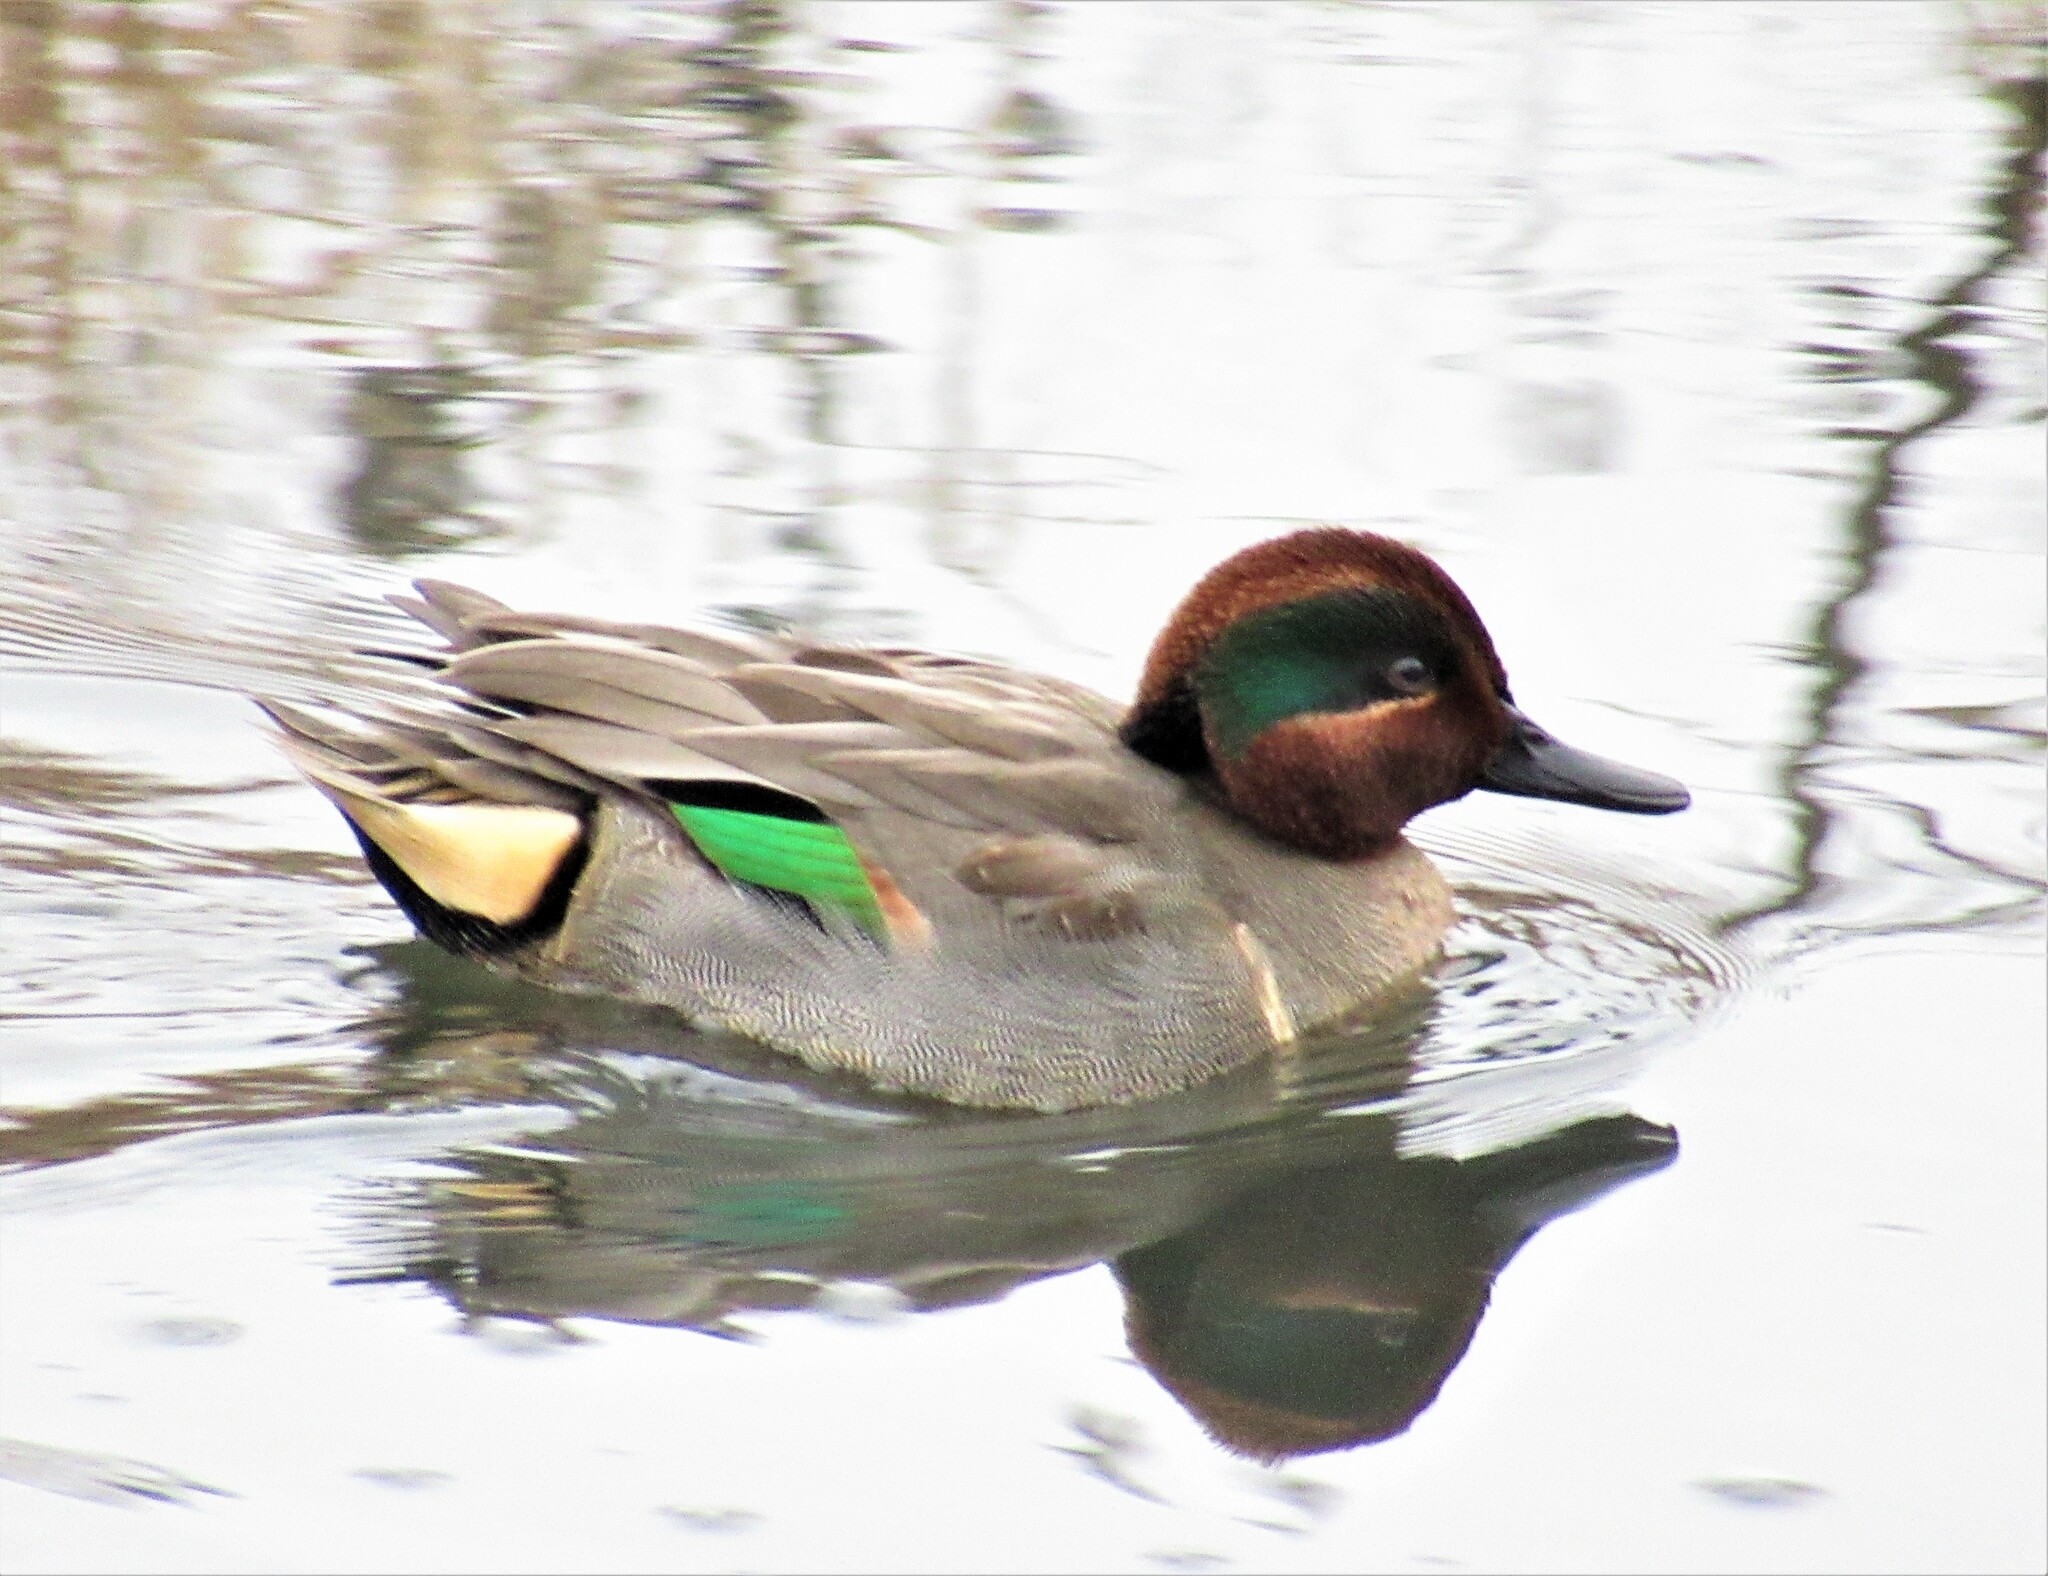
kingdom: Animalia
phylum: Chordata
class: Aves
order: Anseriformes
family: Anatidae
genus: Anas
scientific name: Anas crecca
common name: Eurasian teal
